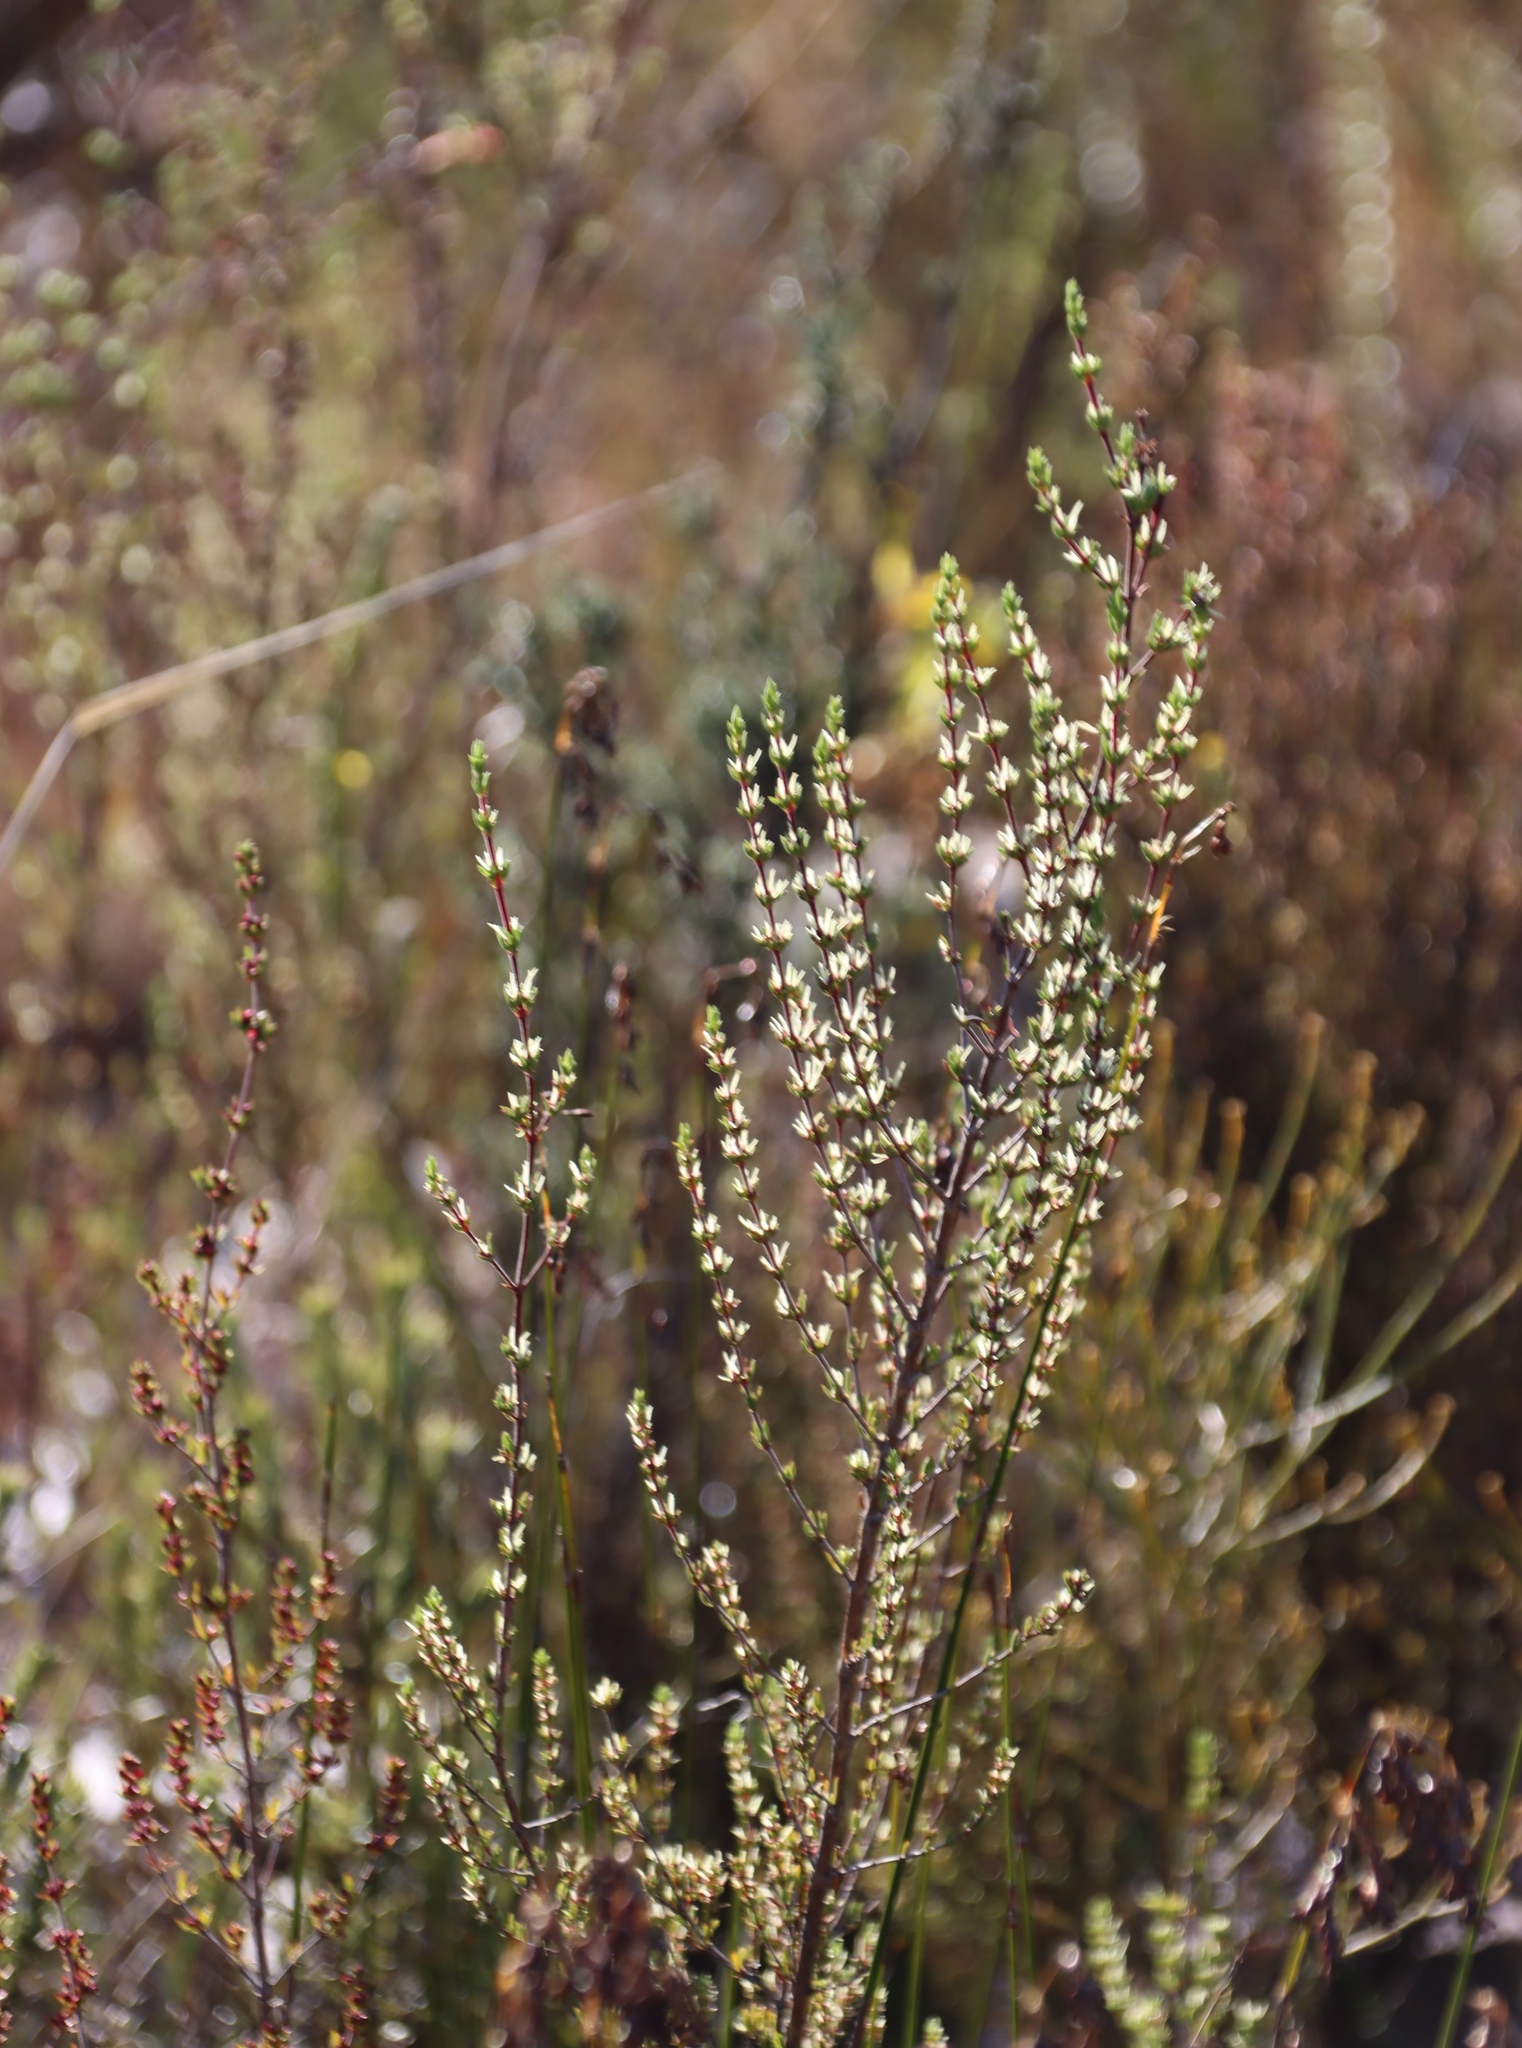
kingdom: Plantae
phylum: Tracheophyta
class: Magnoliopsida
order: Gentianales
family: Rubiaceae
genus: Anthospermum
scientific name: Anthospermum spathulatum
